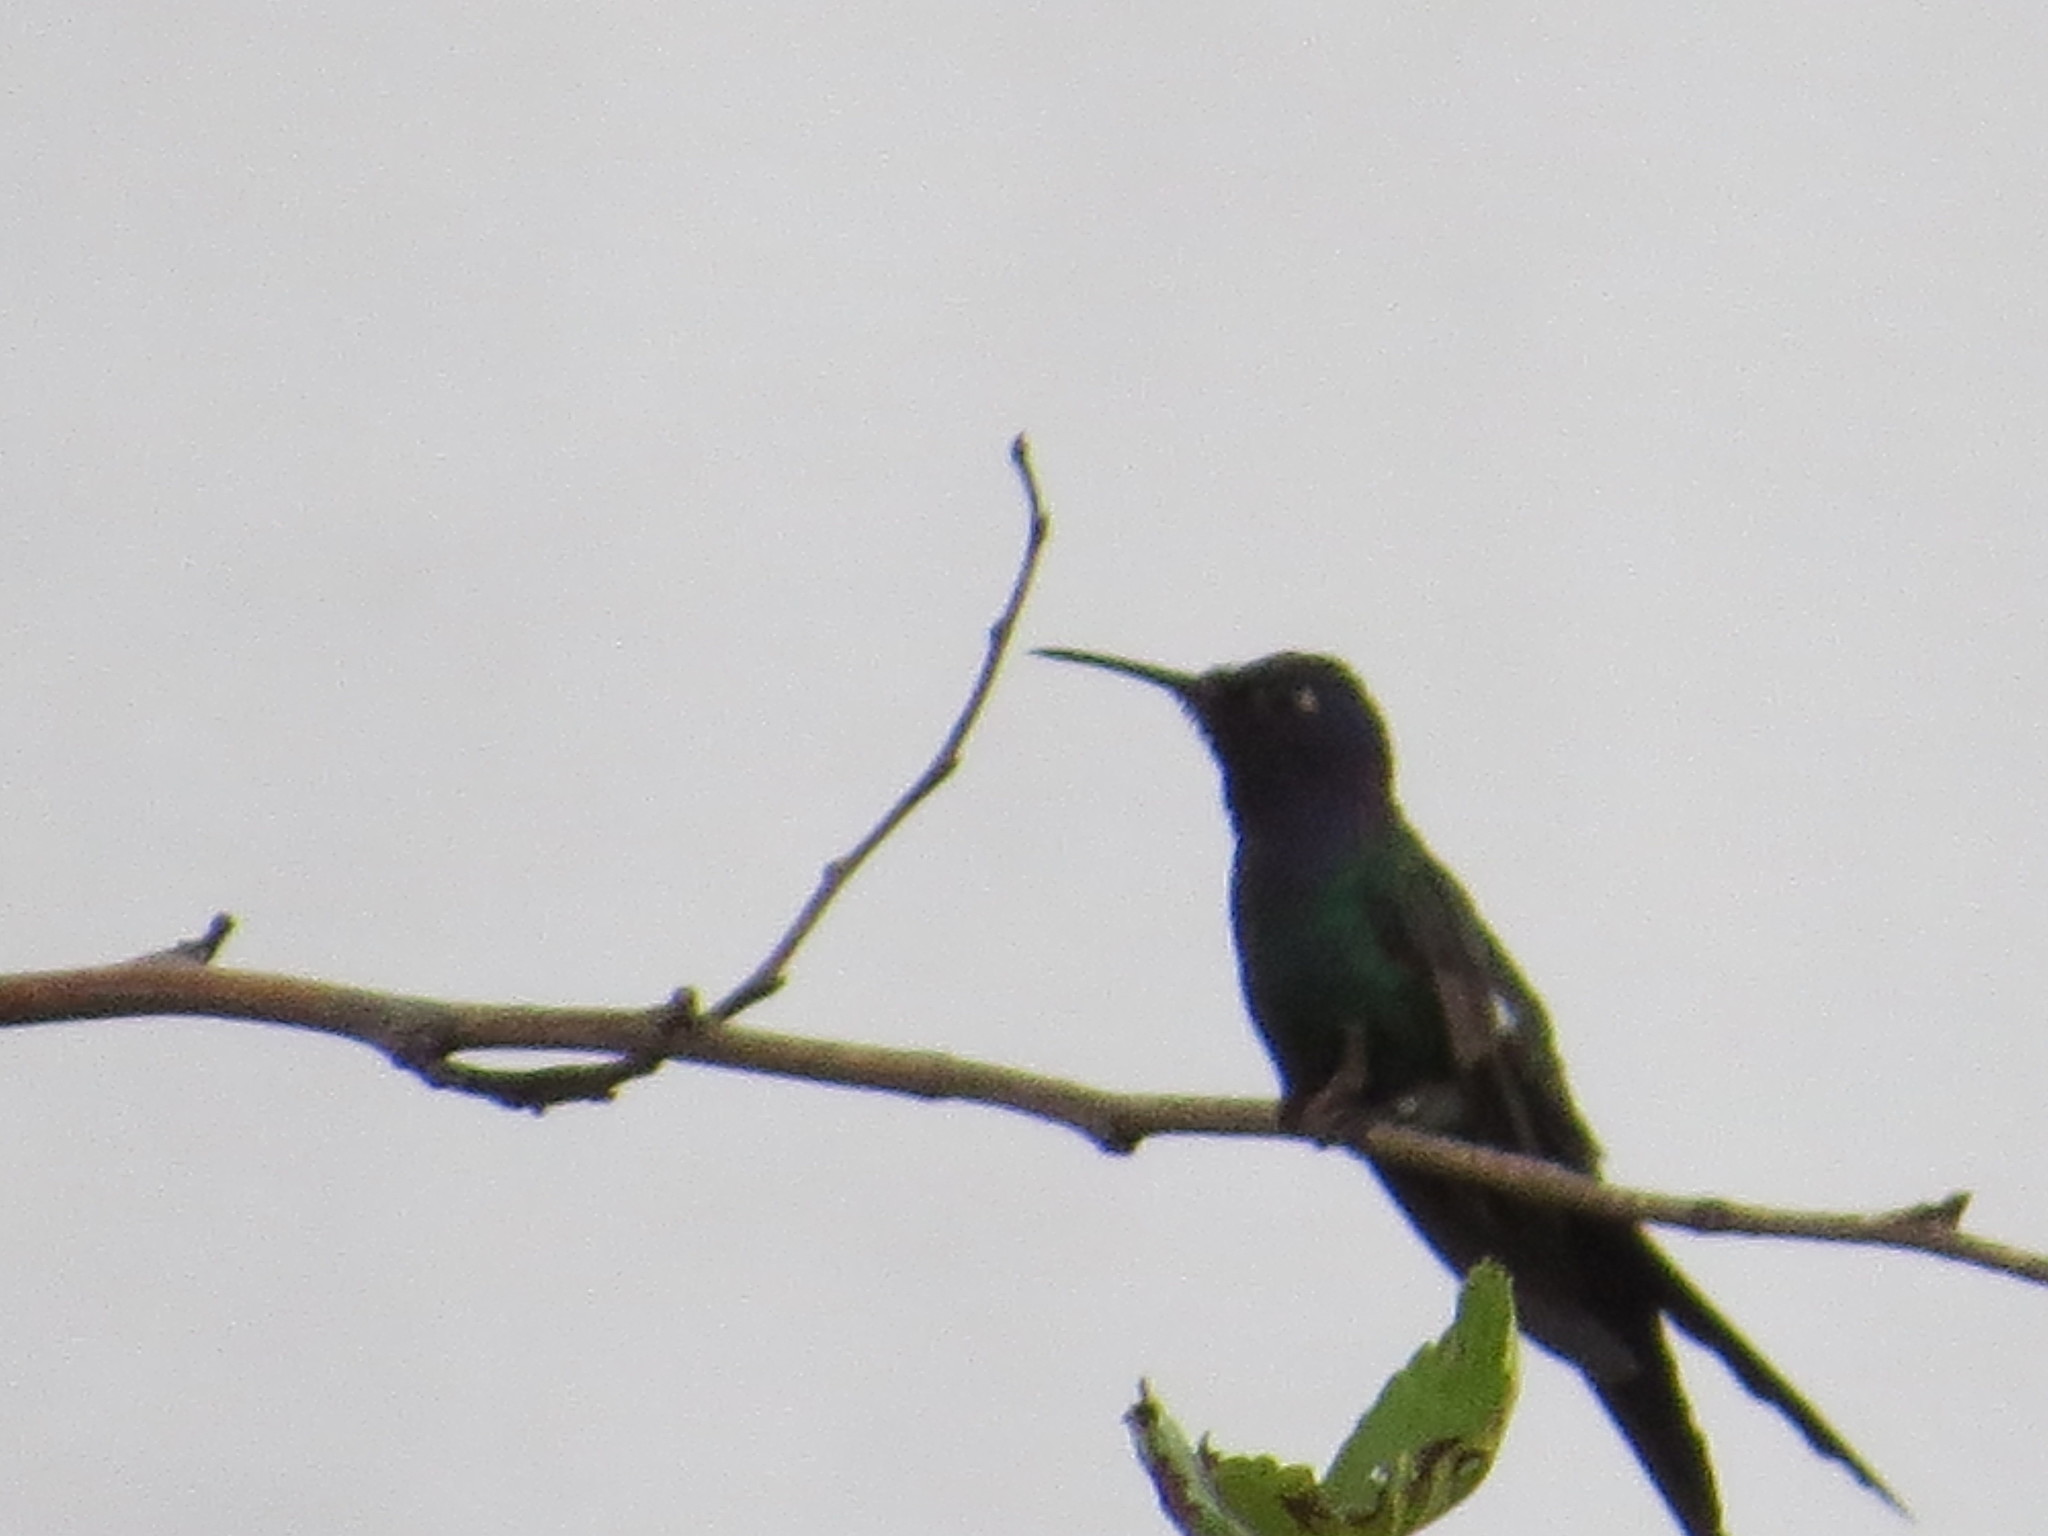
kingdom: Animalia
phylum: Chordata
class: Aves
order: Apodiformes
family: Trochilidae
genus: Eupetomena
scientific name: Eupetomena macroura
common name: Swallow-tailed hummingbird
